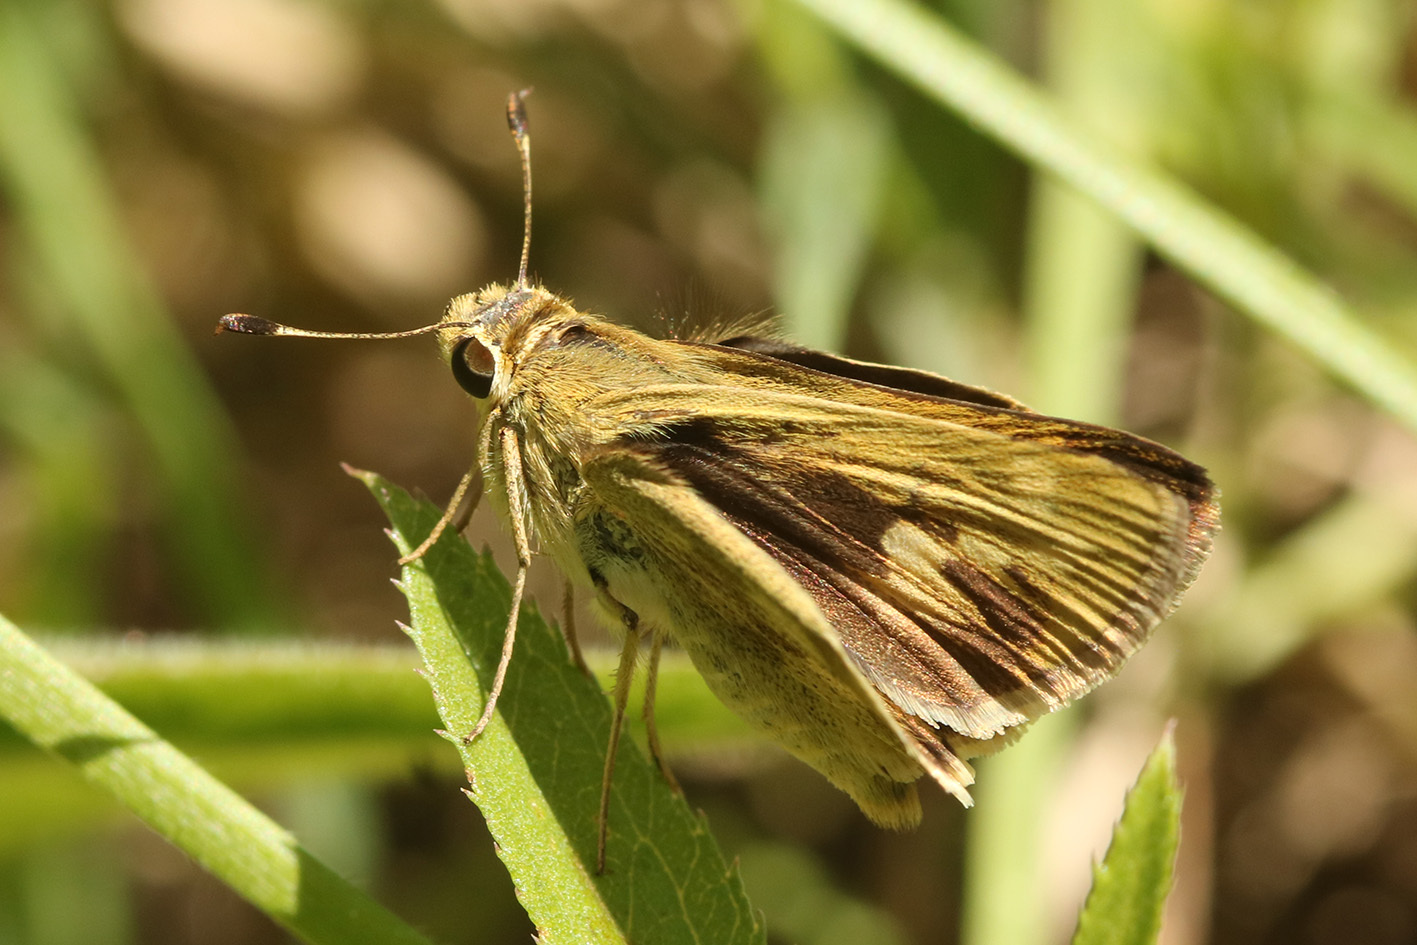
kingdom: Animalia
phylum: Arthropoda
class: Insecta
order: Lepidoptera
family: Hesperiidae
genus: Polites
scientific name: Polites vibex
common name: Whirlabout
